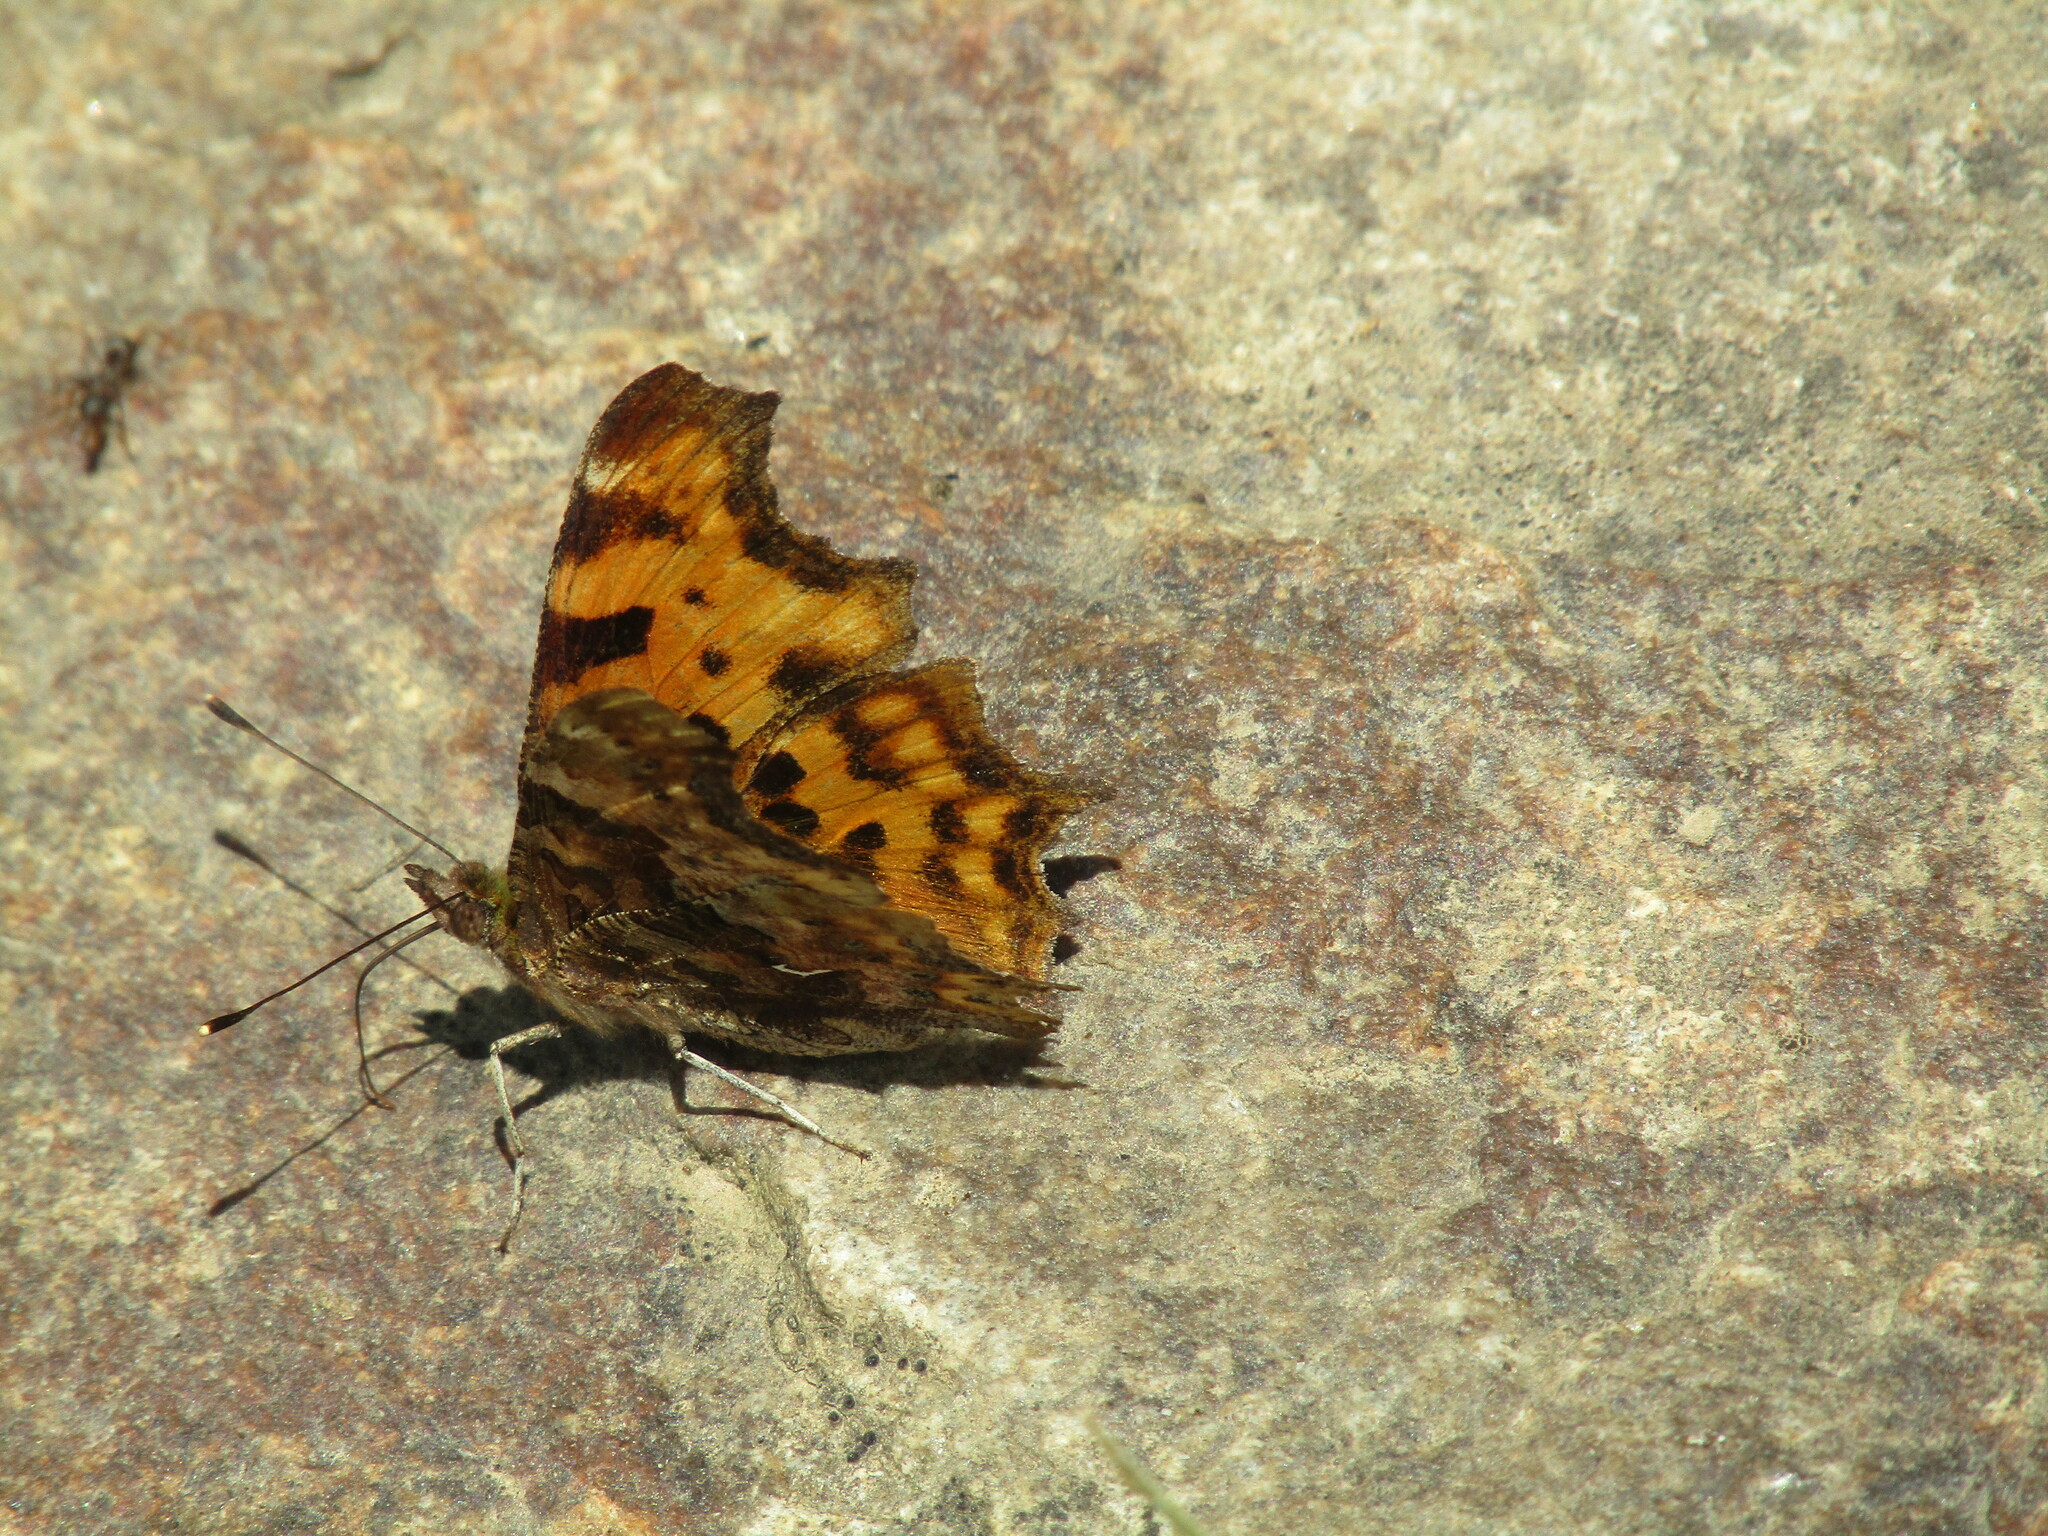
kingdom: Animalia
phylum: Arthropoda
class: Insecta
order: Lepidoptera
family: Nymphalidae
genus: Polygonia
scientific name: Polygonia c-album
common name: Comma
